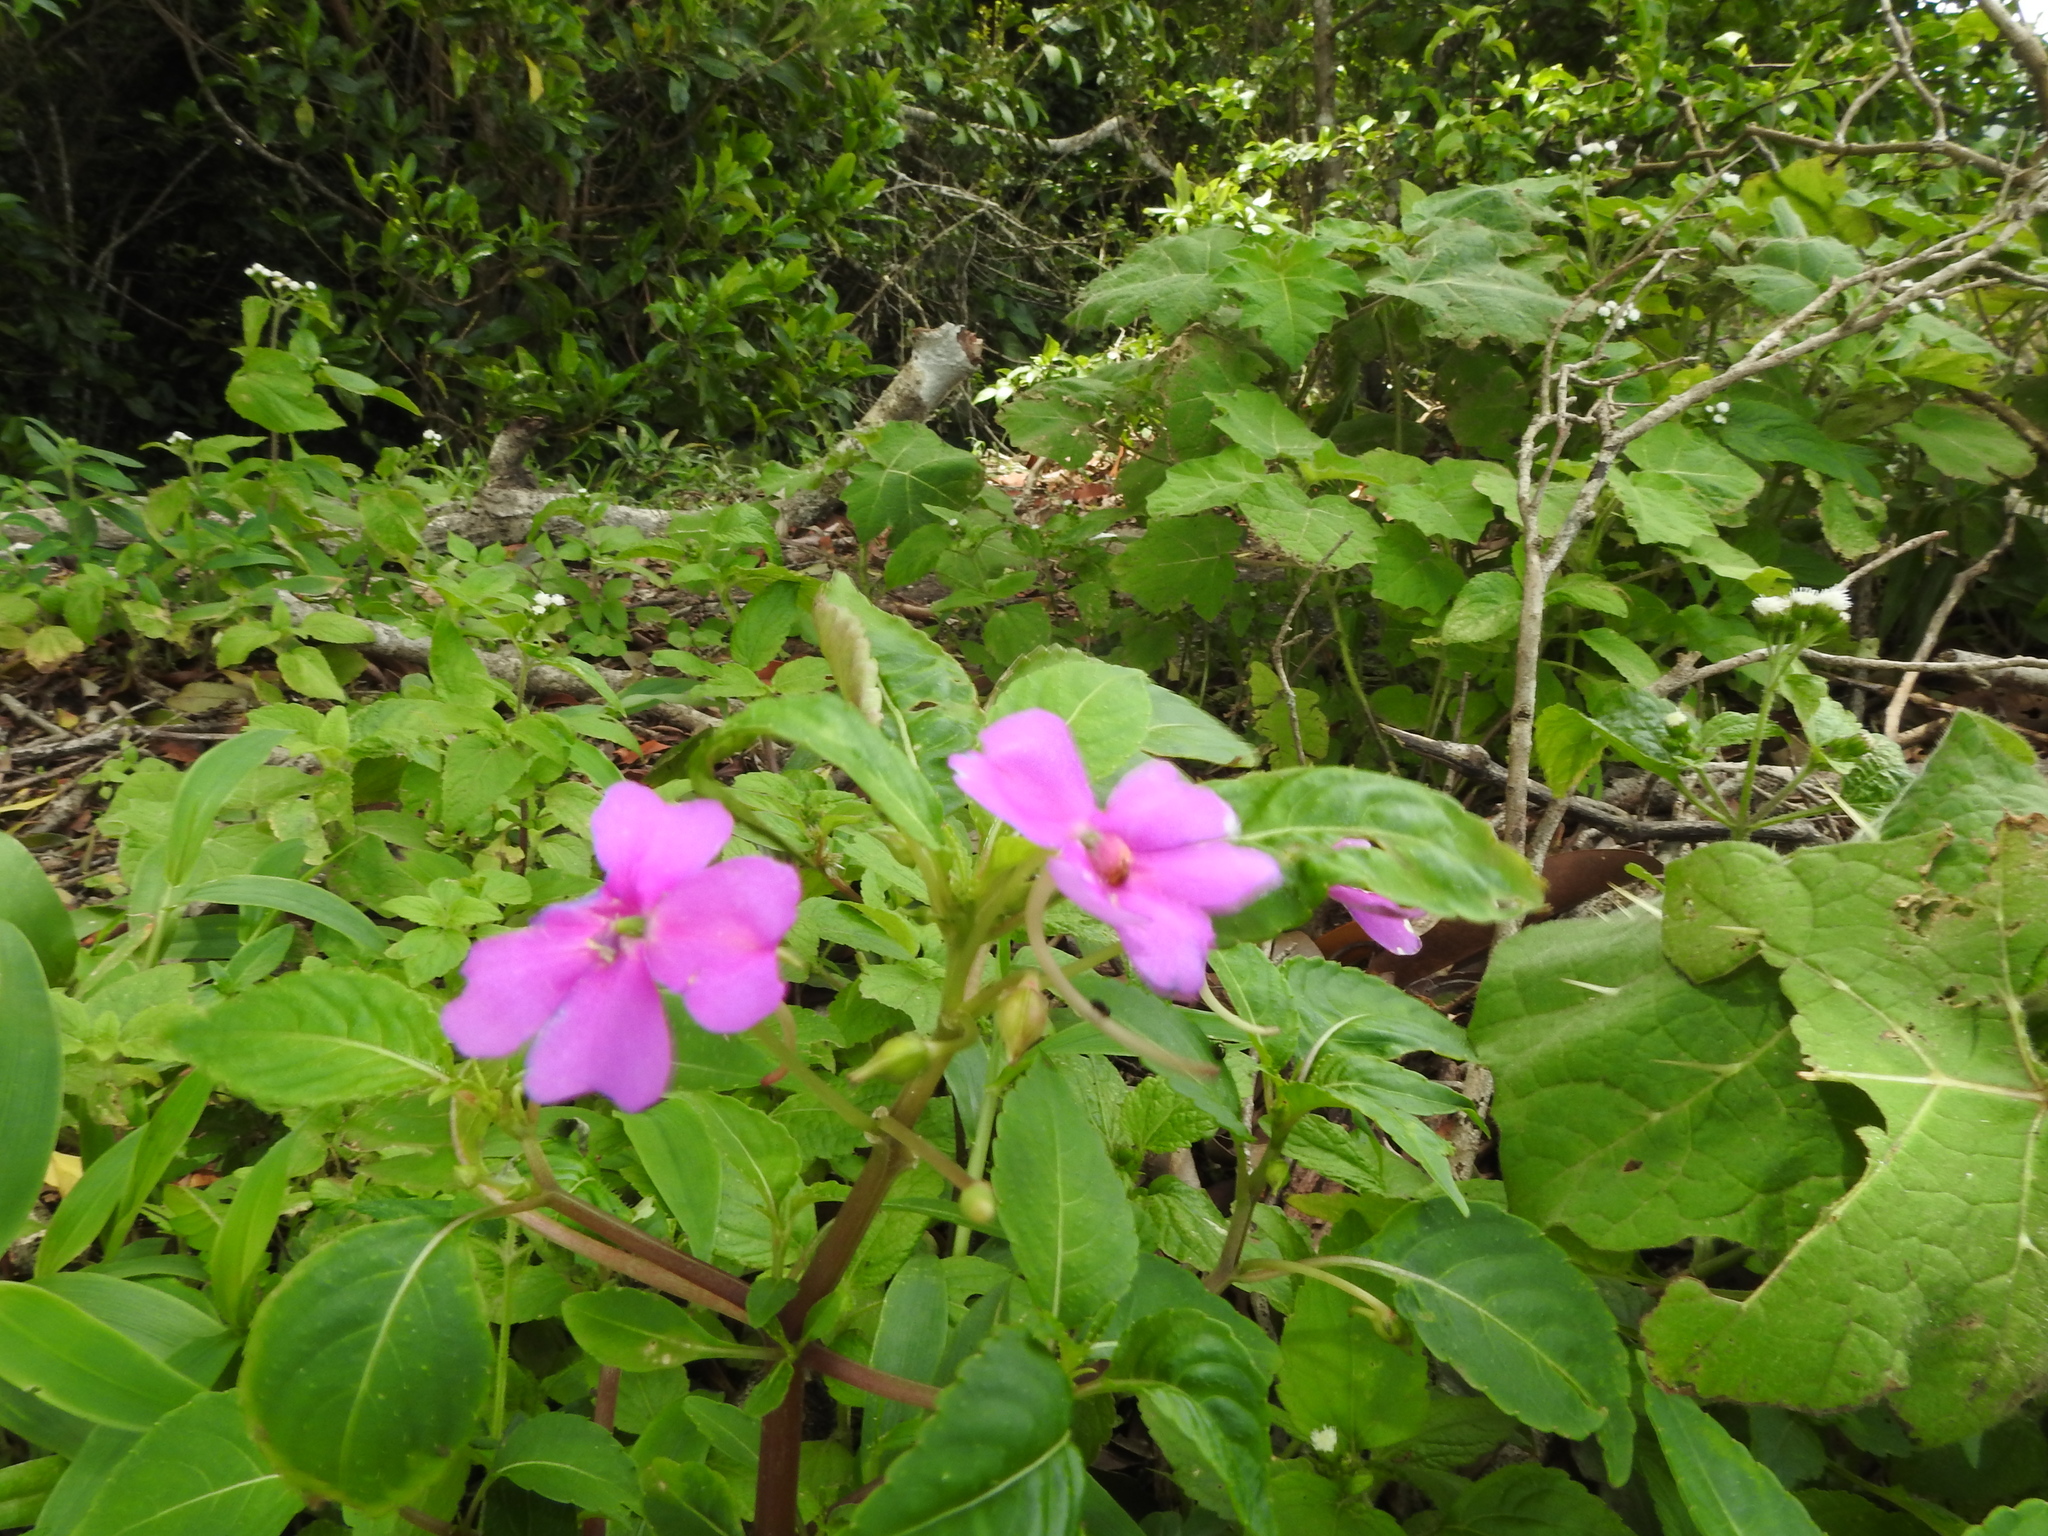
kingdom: Plantae
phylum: Tracheophyta
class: Magnoliopsida
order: Ericales
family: Balsaminaceae
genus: Impatiens
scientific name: Impatiens walleriana
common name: Buzzy lizzy
